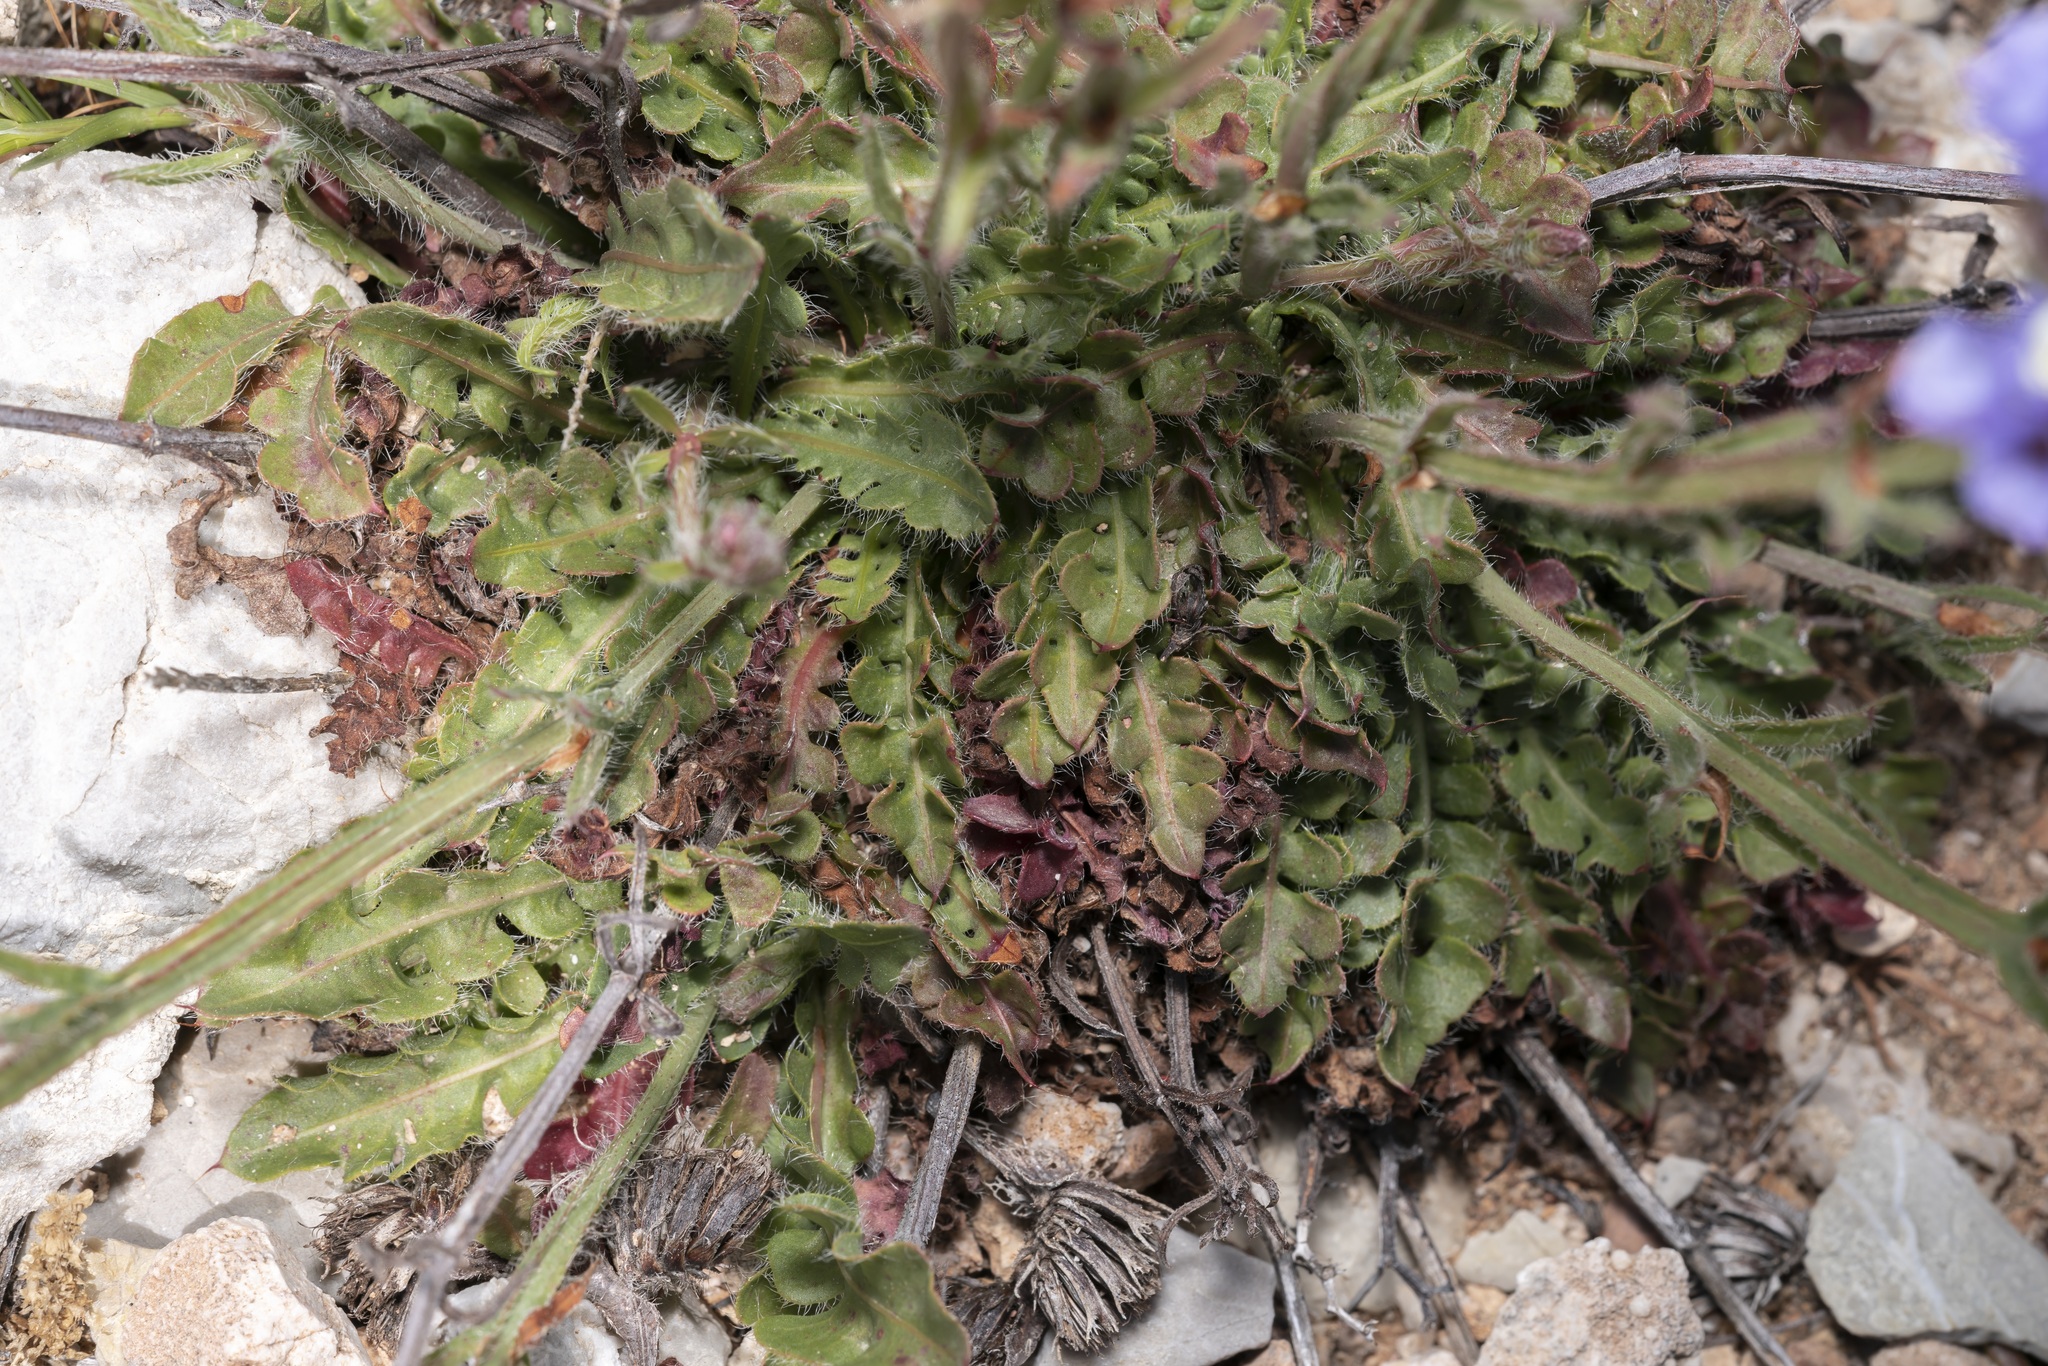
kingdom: Plantae
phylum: Tracheophyta
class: Magnoliopsida
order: Caryophyllales
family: Plumbaginaceae
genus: Limonium
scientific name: Limonium sinuatum
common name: Statice
